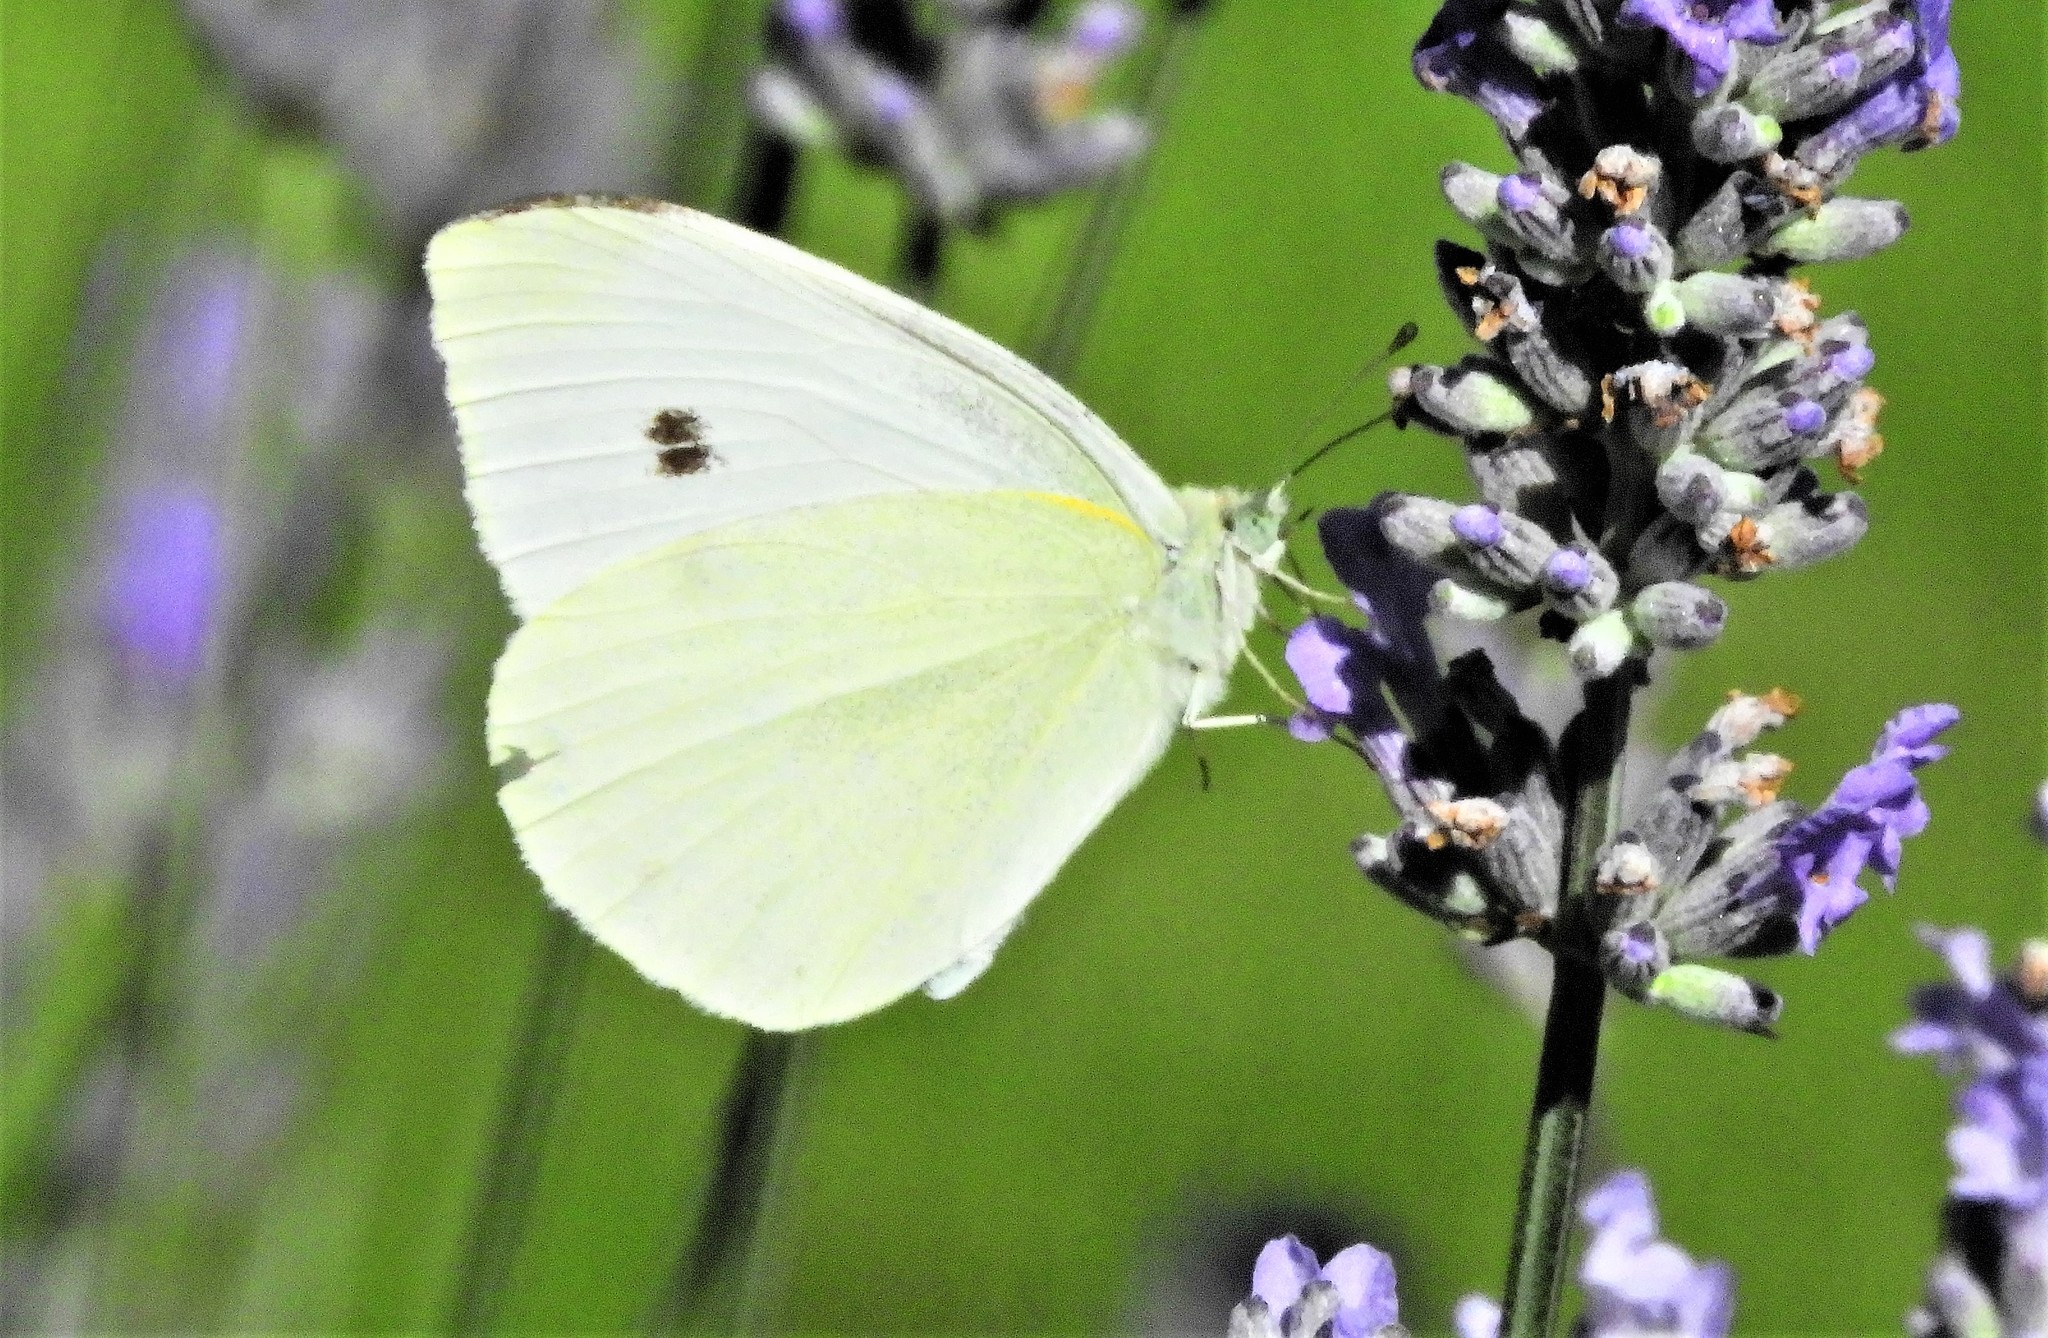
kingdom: Animalia
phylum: Arthropoda
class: Insecta
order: Lepidoptera
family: Pieridae
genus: Pieris
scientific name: Pieris rapae
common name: Small white
